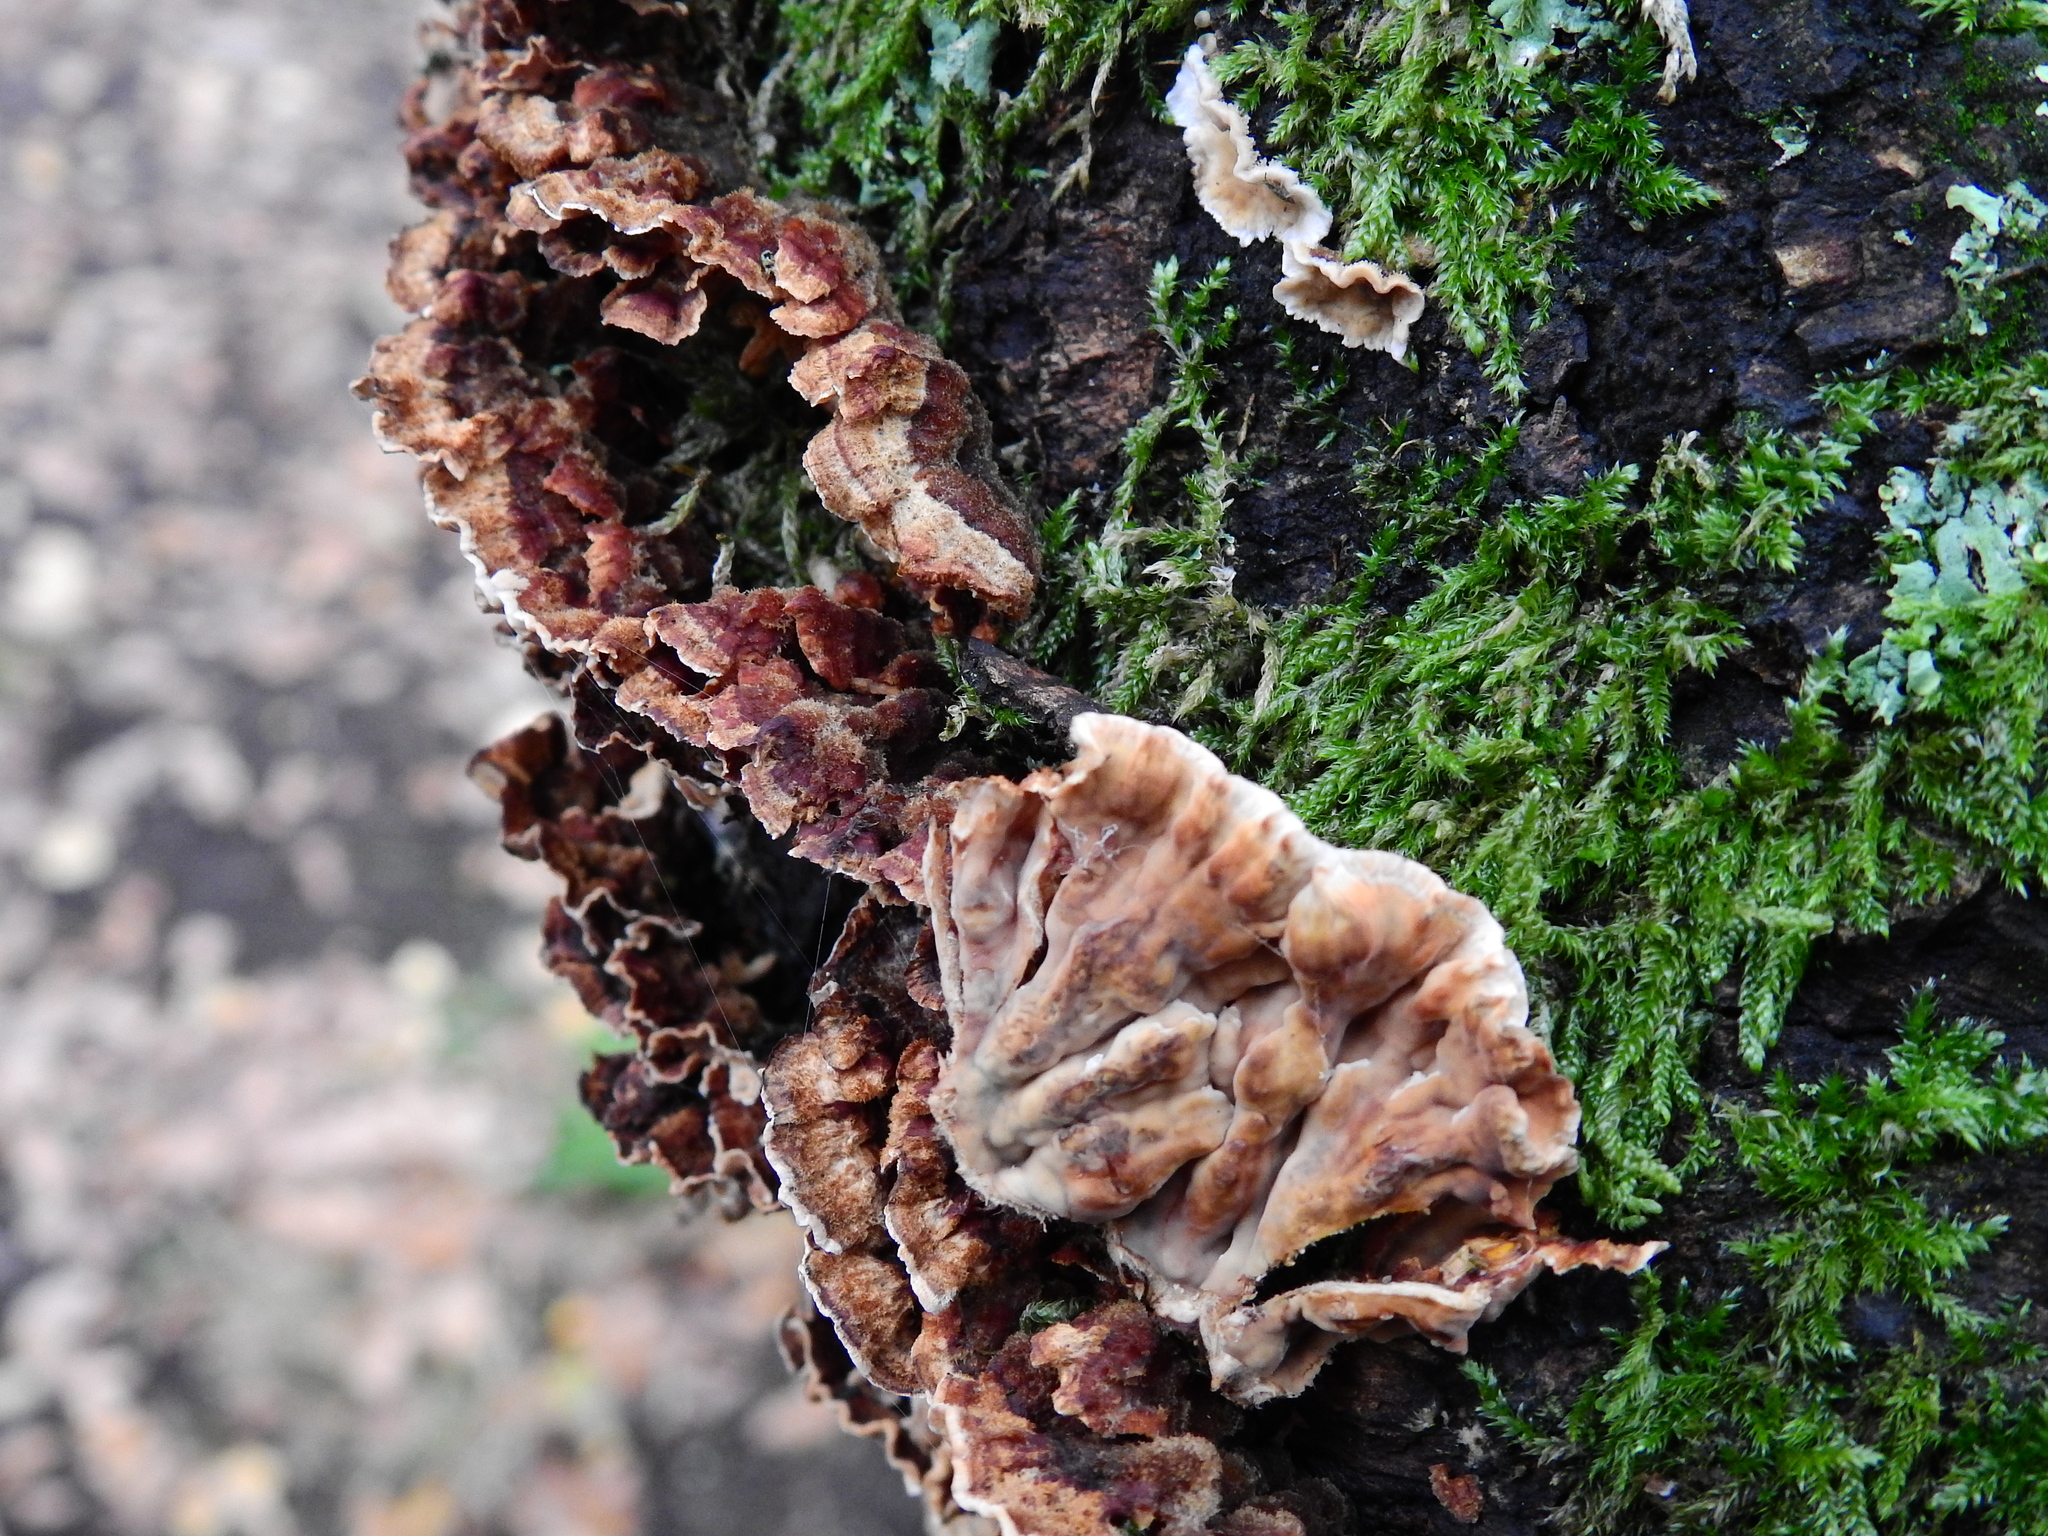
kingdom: Fungi
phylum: Basidiomycota
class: Agaricomycetes
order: Russulales
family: Stereaceae
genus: Stereum
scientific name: Stereum gausapatum
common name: Bleeding oak crust
